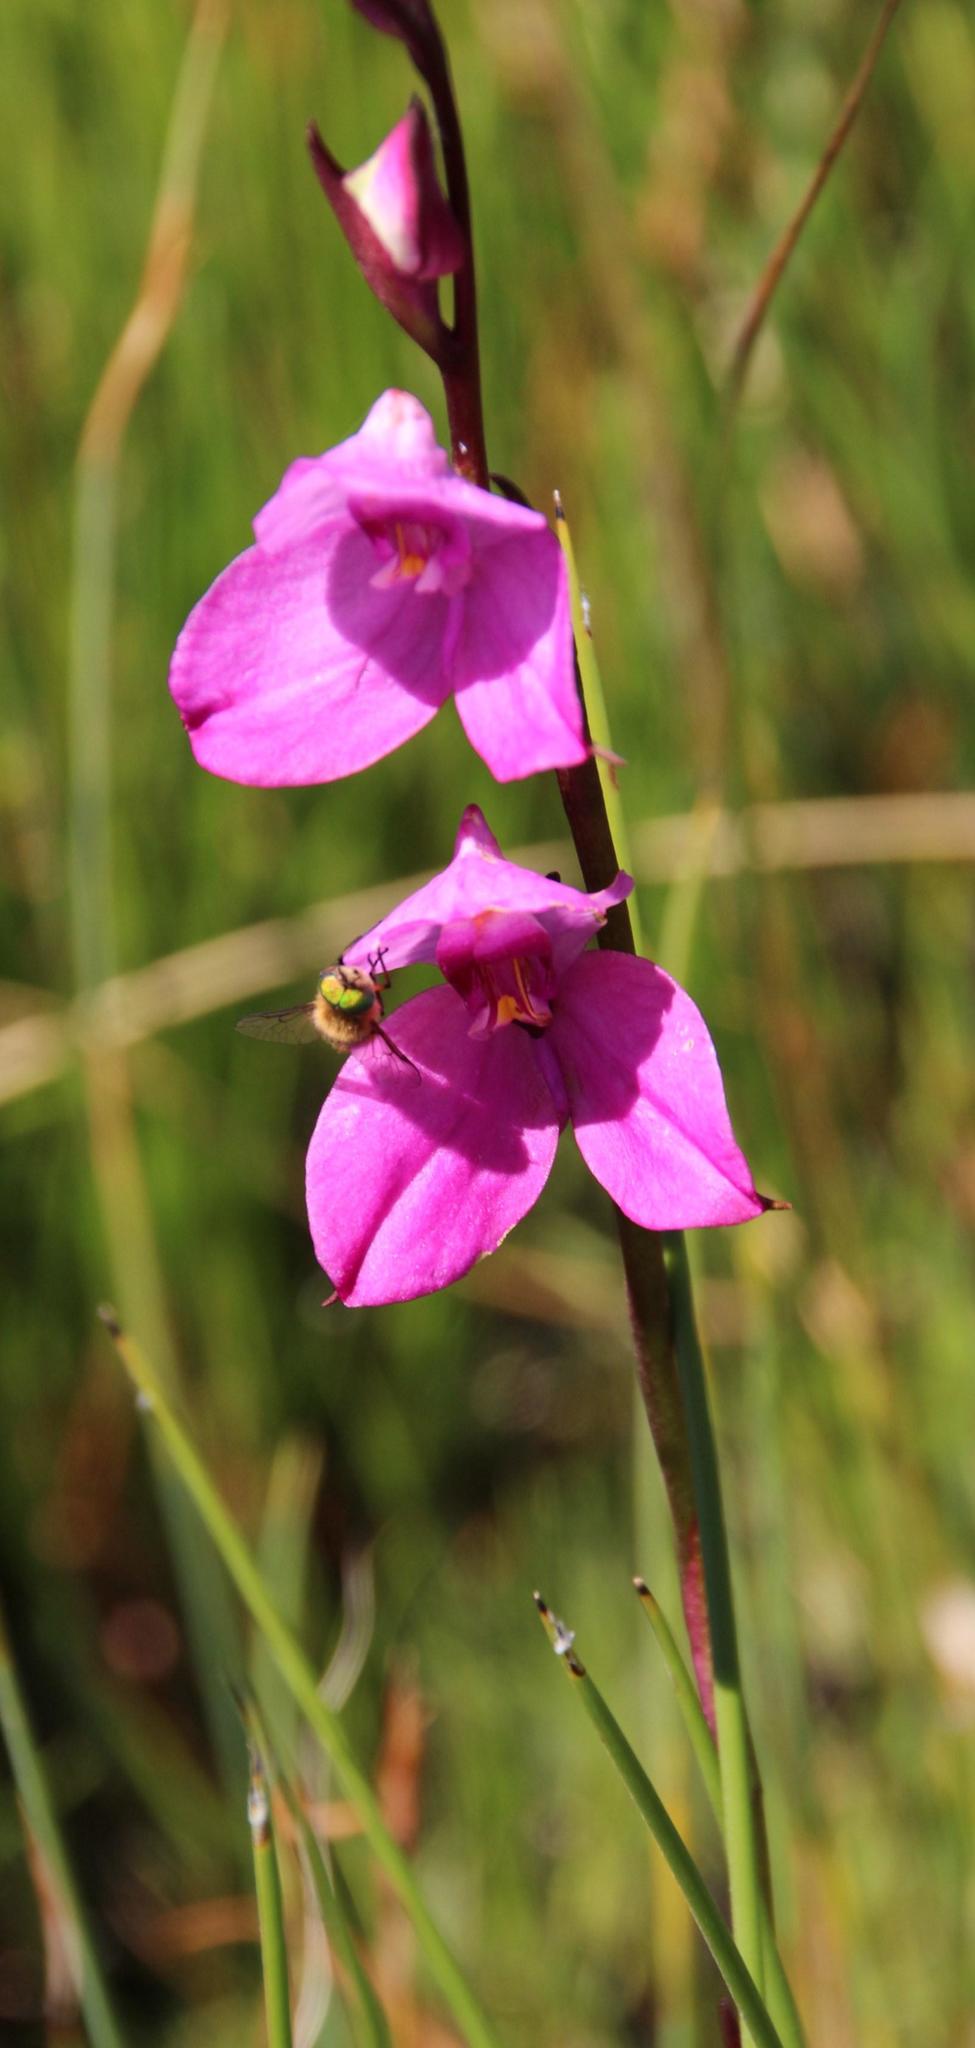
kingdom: Plantae
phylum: Tracheophyta
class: Liliopsida
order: Asparagales
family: Orchidaceae
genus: Disa
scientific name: Disa racemosa
